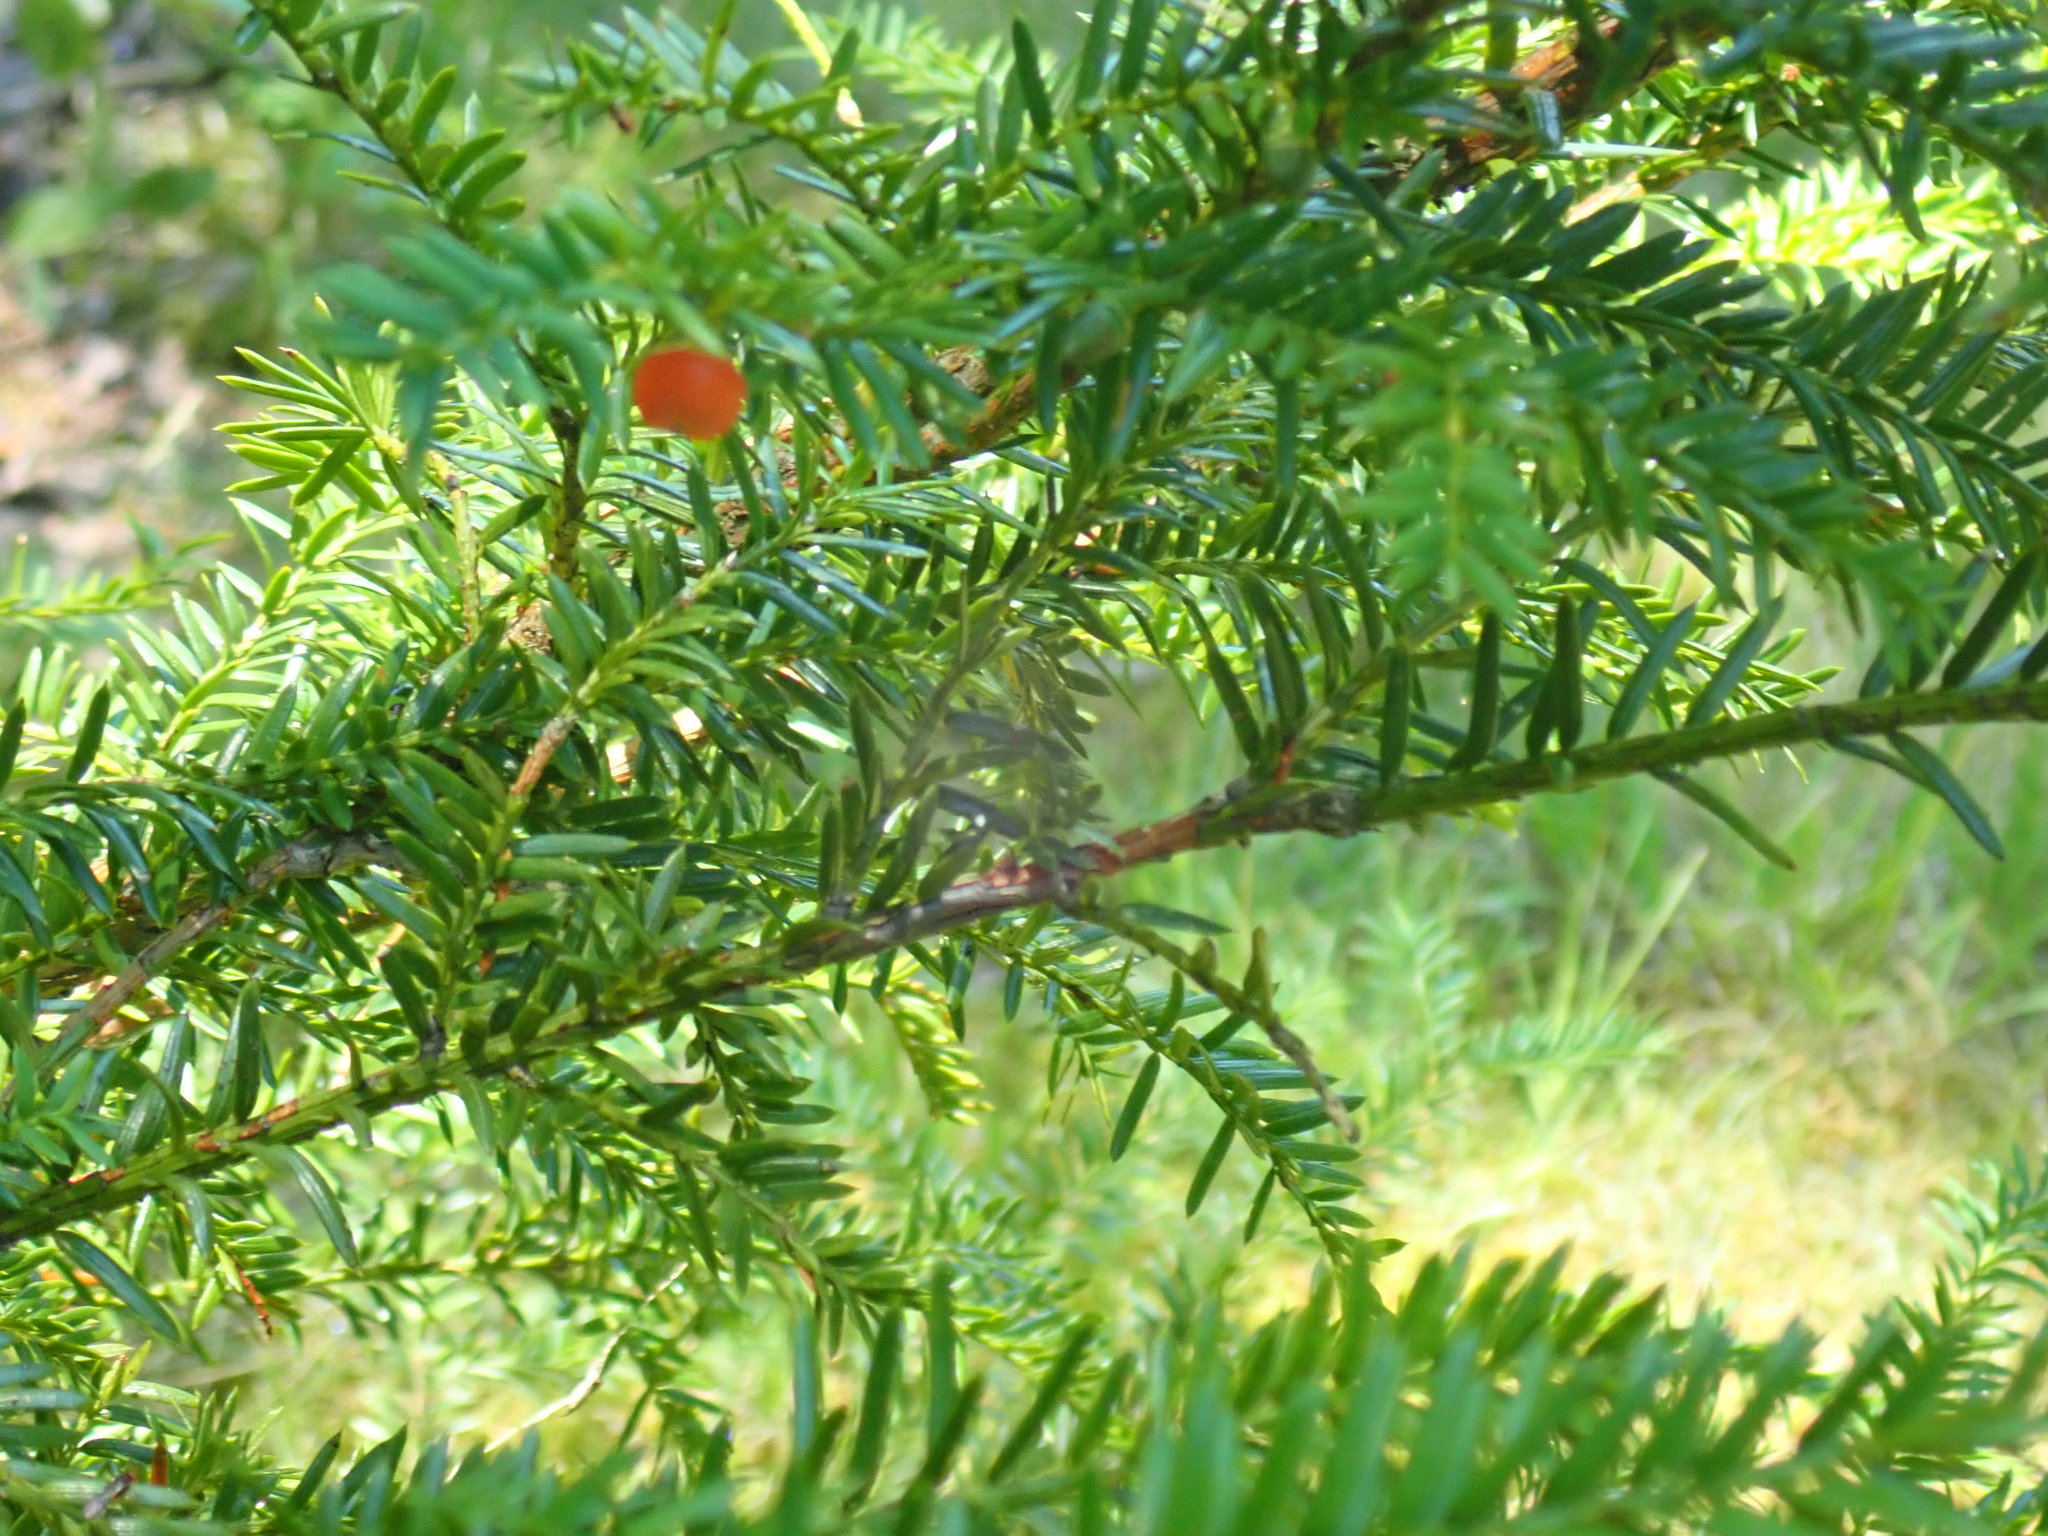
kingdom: Plantae
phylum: Tracheophyta
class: Pinopsida
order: Pinales
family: Taxaceae
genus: Taxus
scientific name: Taxus canadensis
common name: American yew
